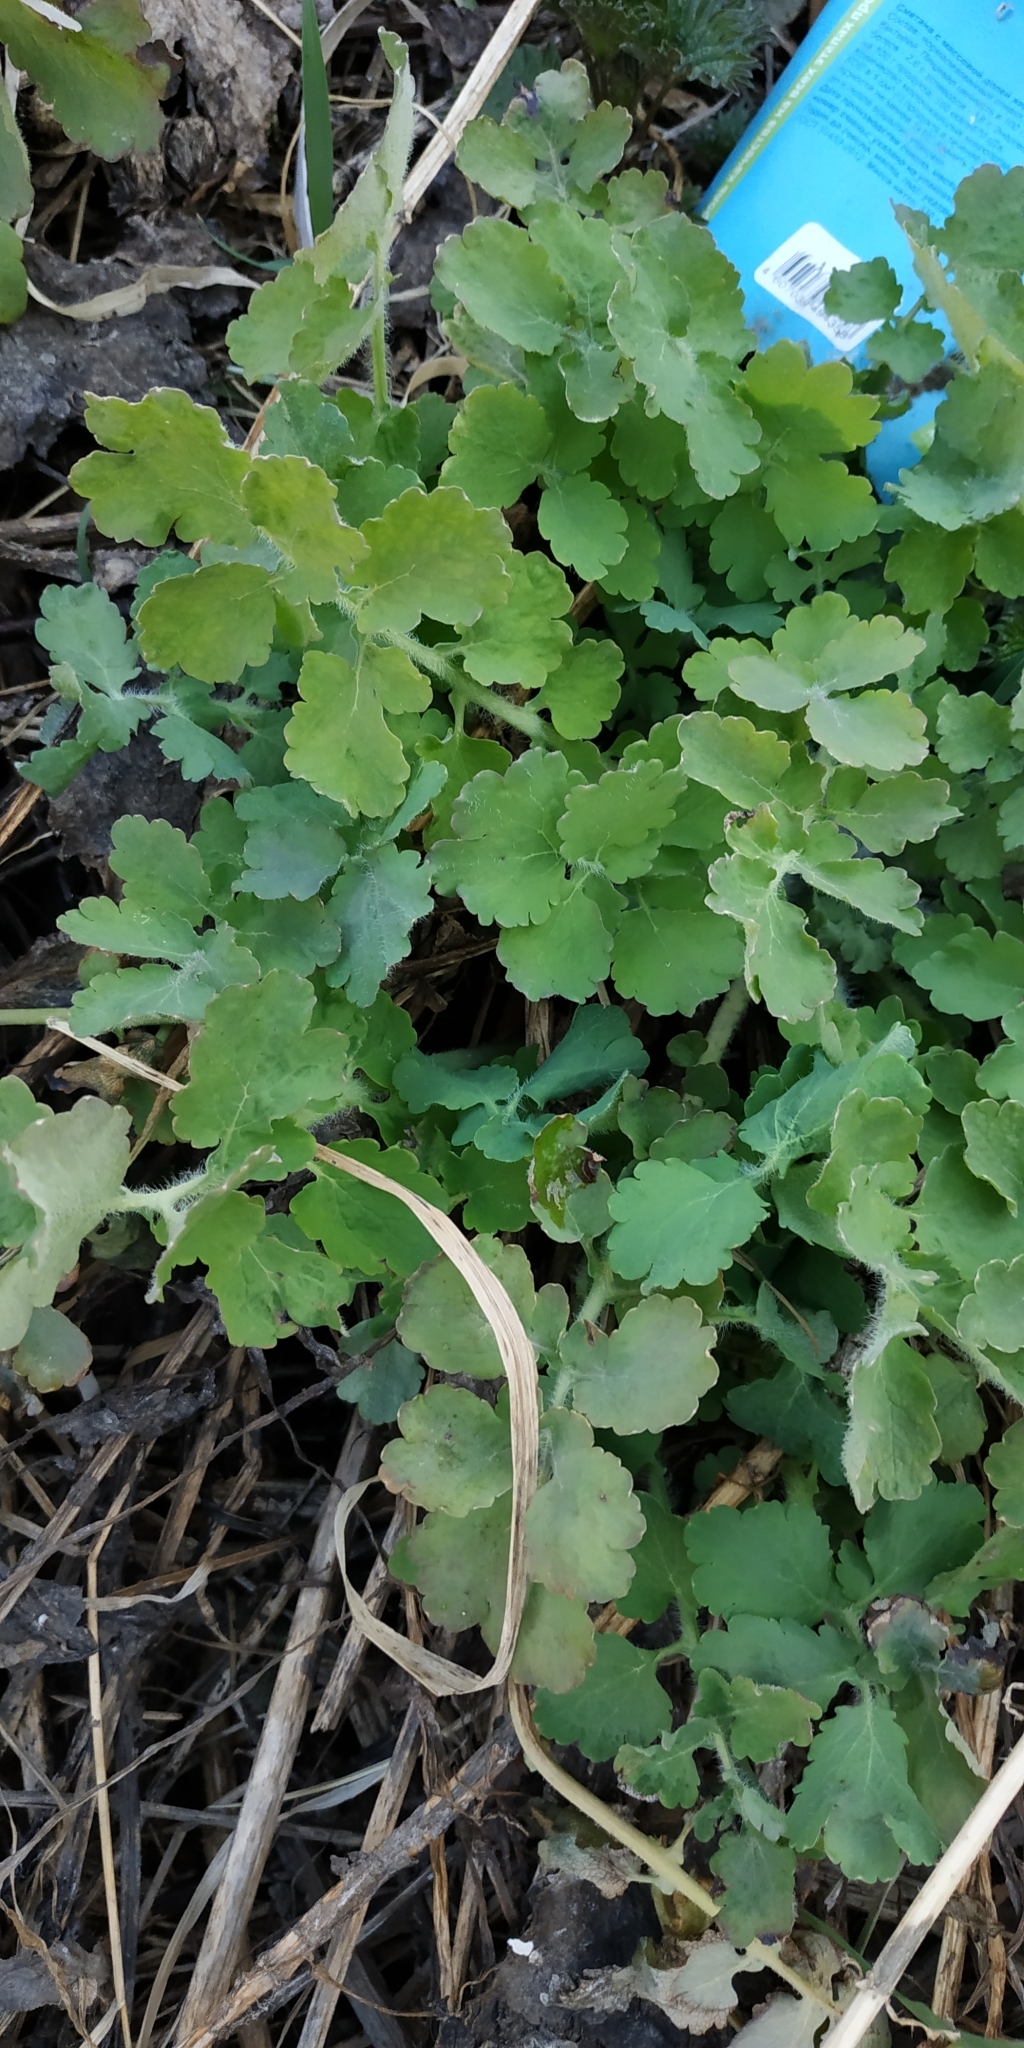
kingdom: Plantae
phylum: Tracheophyta
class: Magnoliopsida
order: Ranunculales
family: Papaveraceae
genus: Chelidonium
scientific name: Chelidonium majus
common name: Greater celandine
